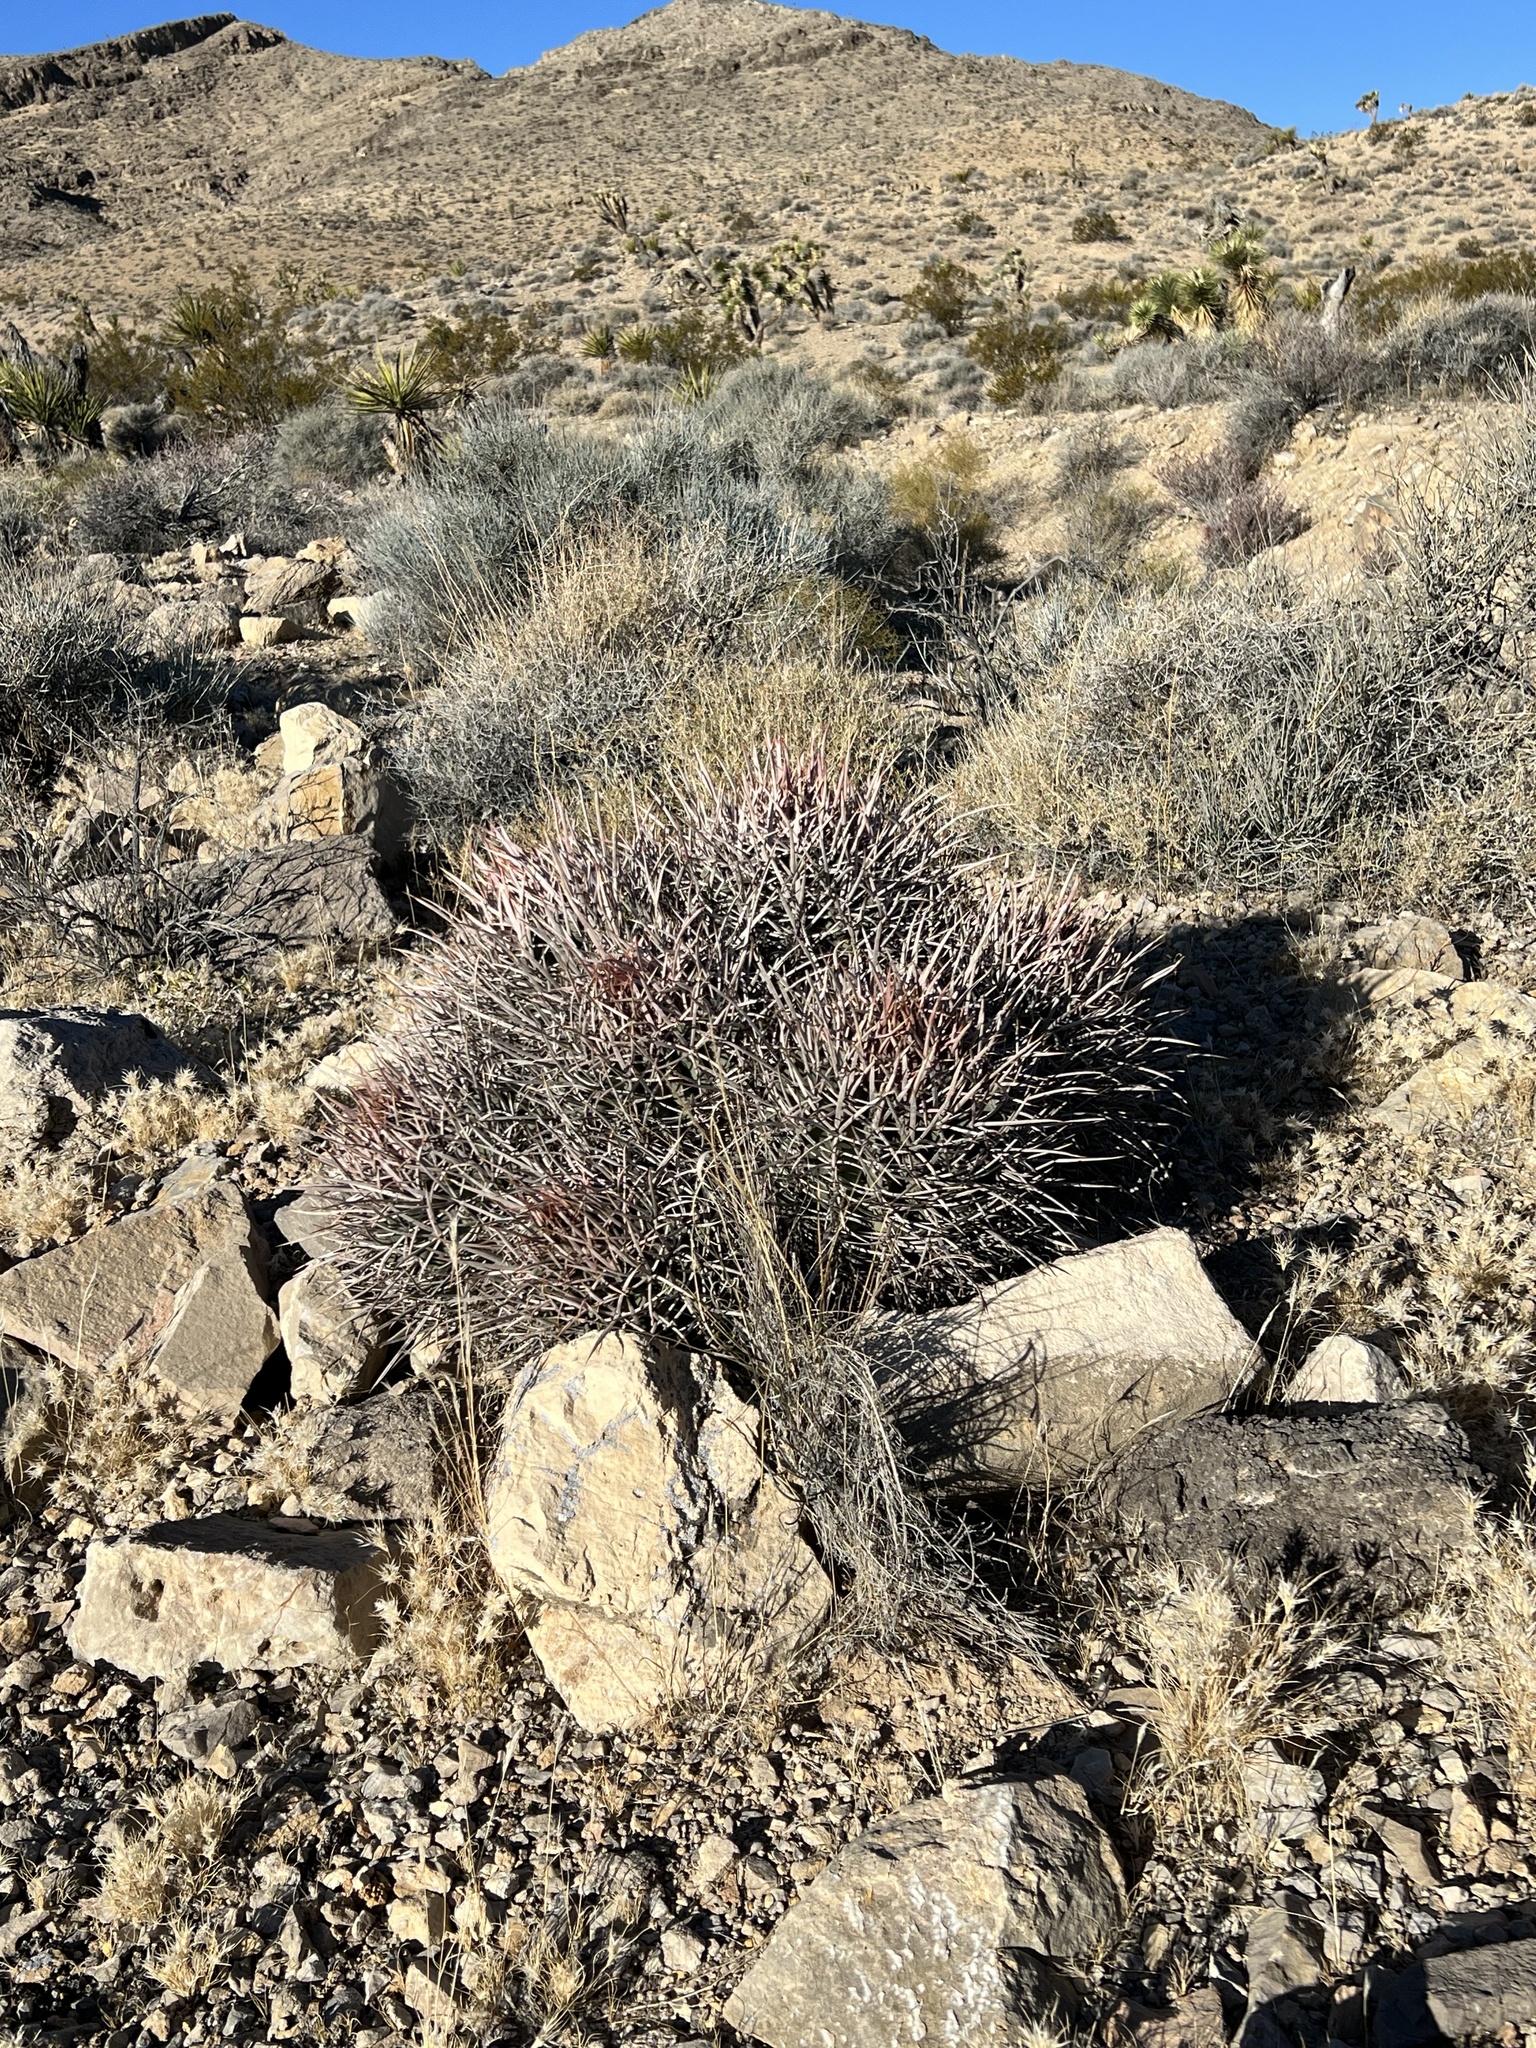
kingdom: Plantae
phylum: Tracheophyta
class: Magnoliopsida
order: Caryophyllales
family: Cactaceae
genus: Echinocactus
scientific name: Echinocactus polycephalus
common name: Cottontop cactus
